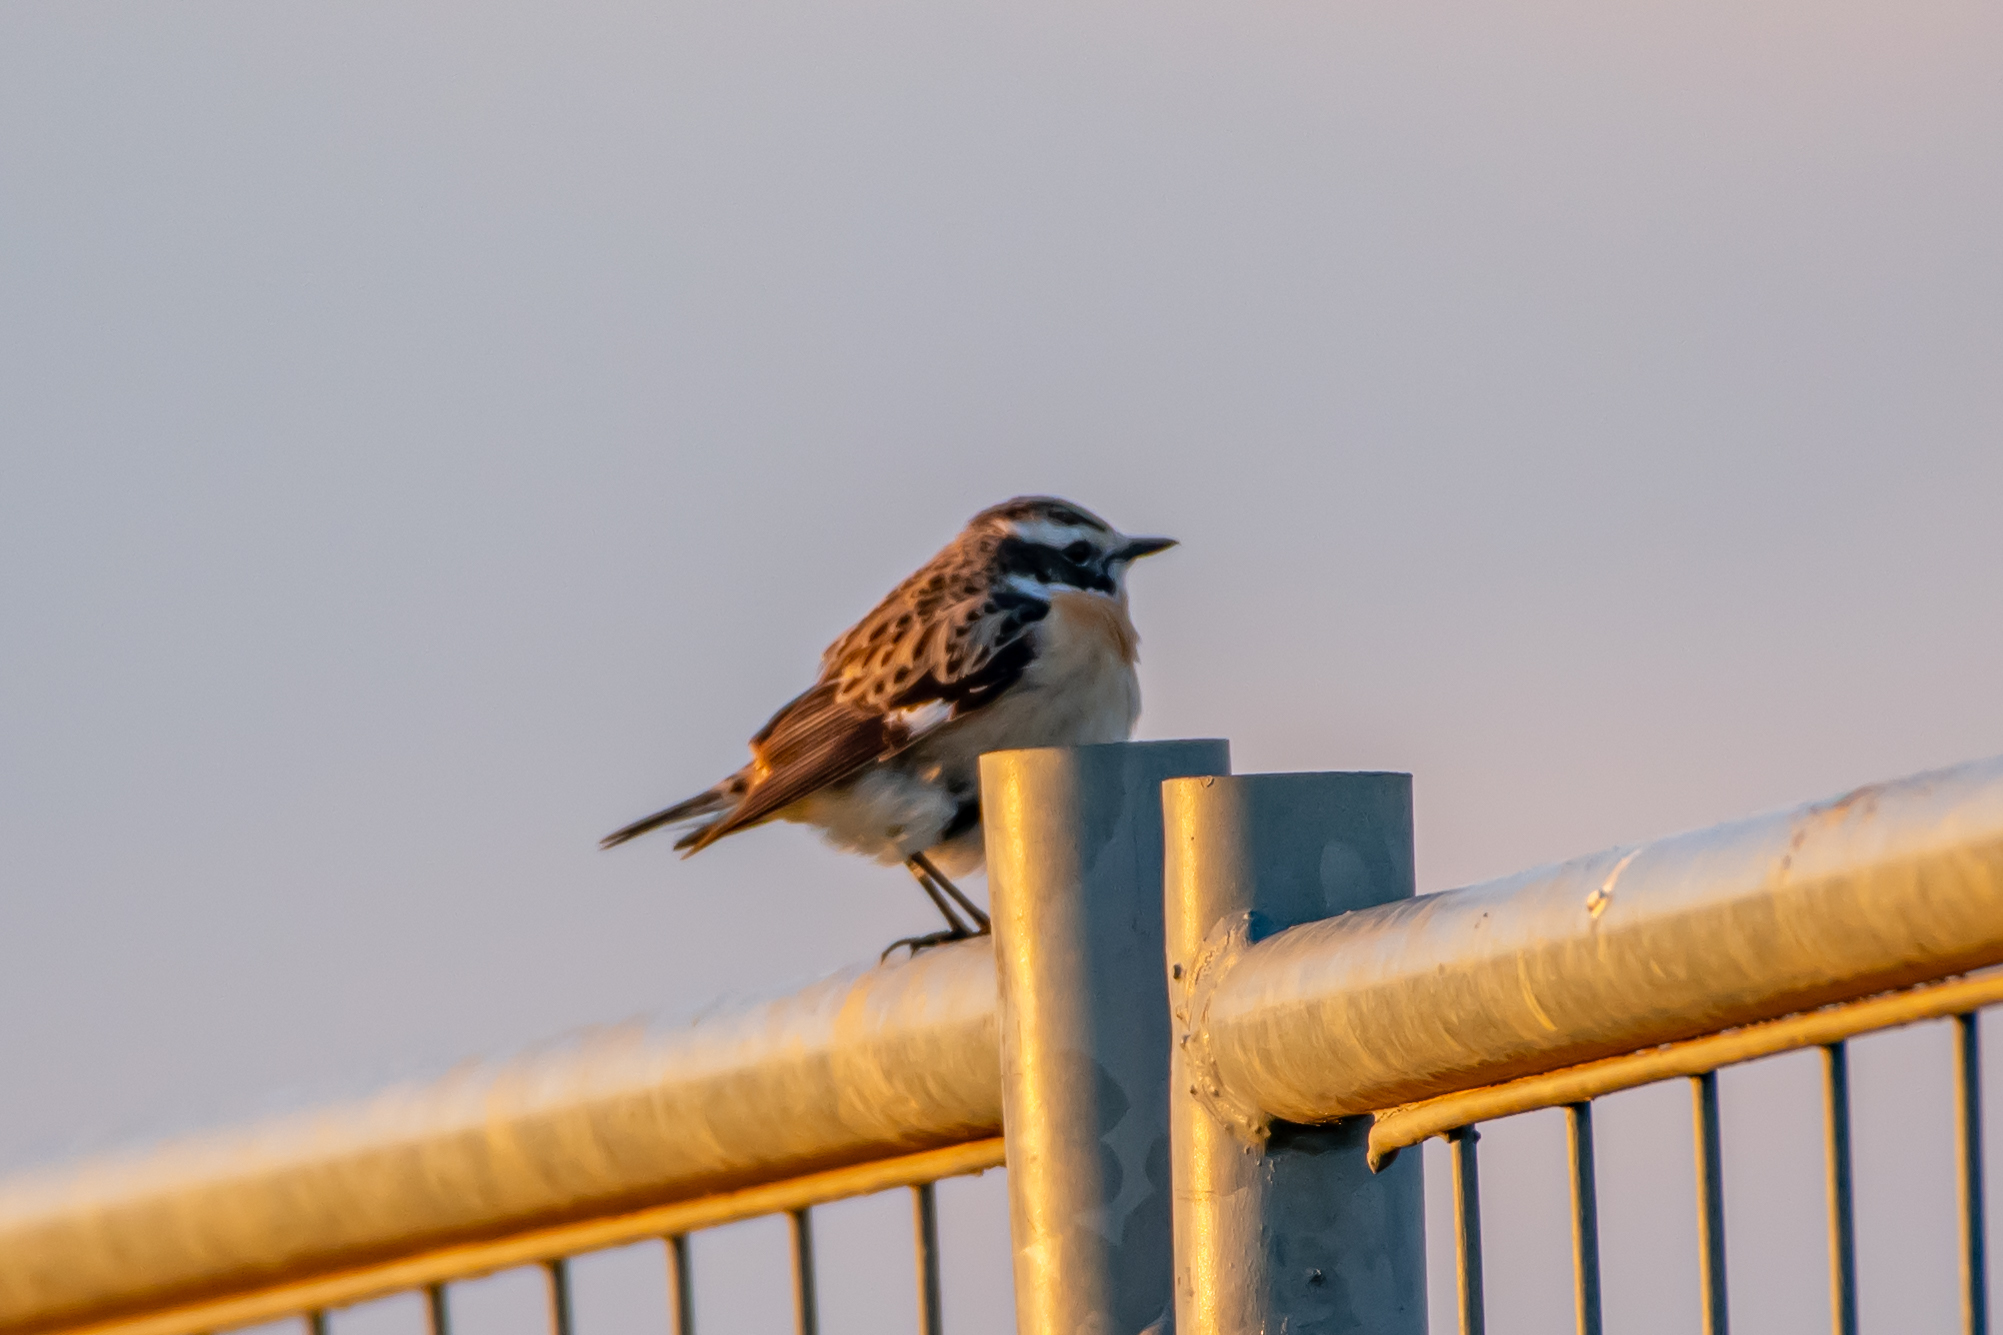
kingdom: Animalia
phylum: Chordata
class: Aves
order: Passeriformes
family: Muscicapidae
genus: Saxicola
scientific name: Saxicola rubetra
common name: Whinchat
